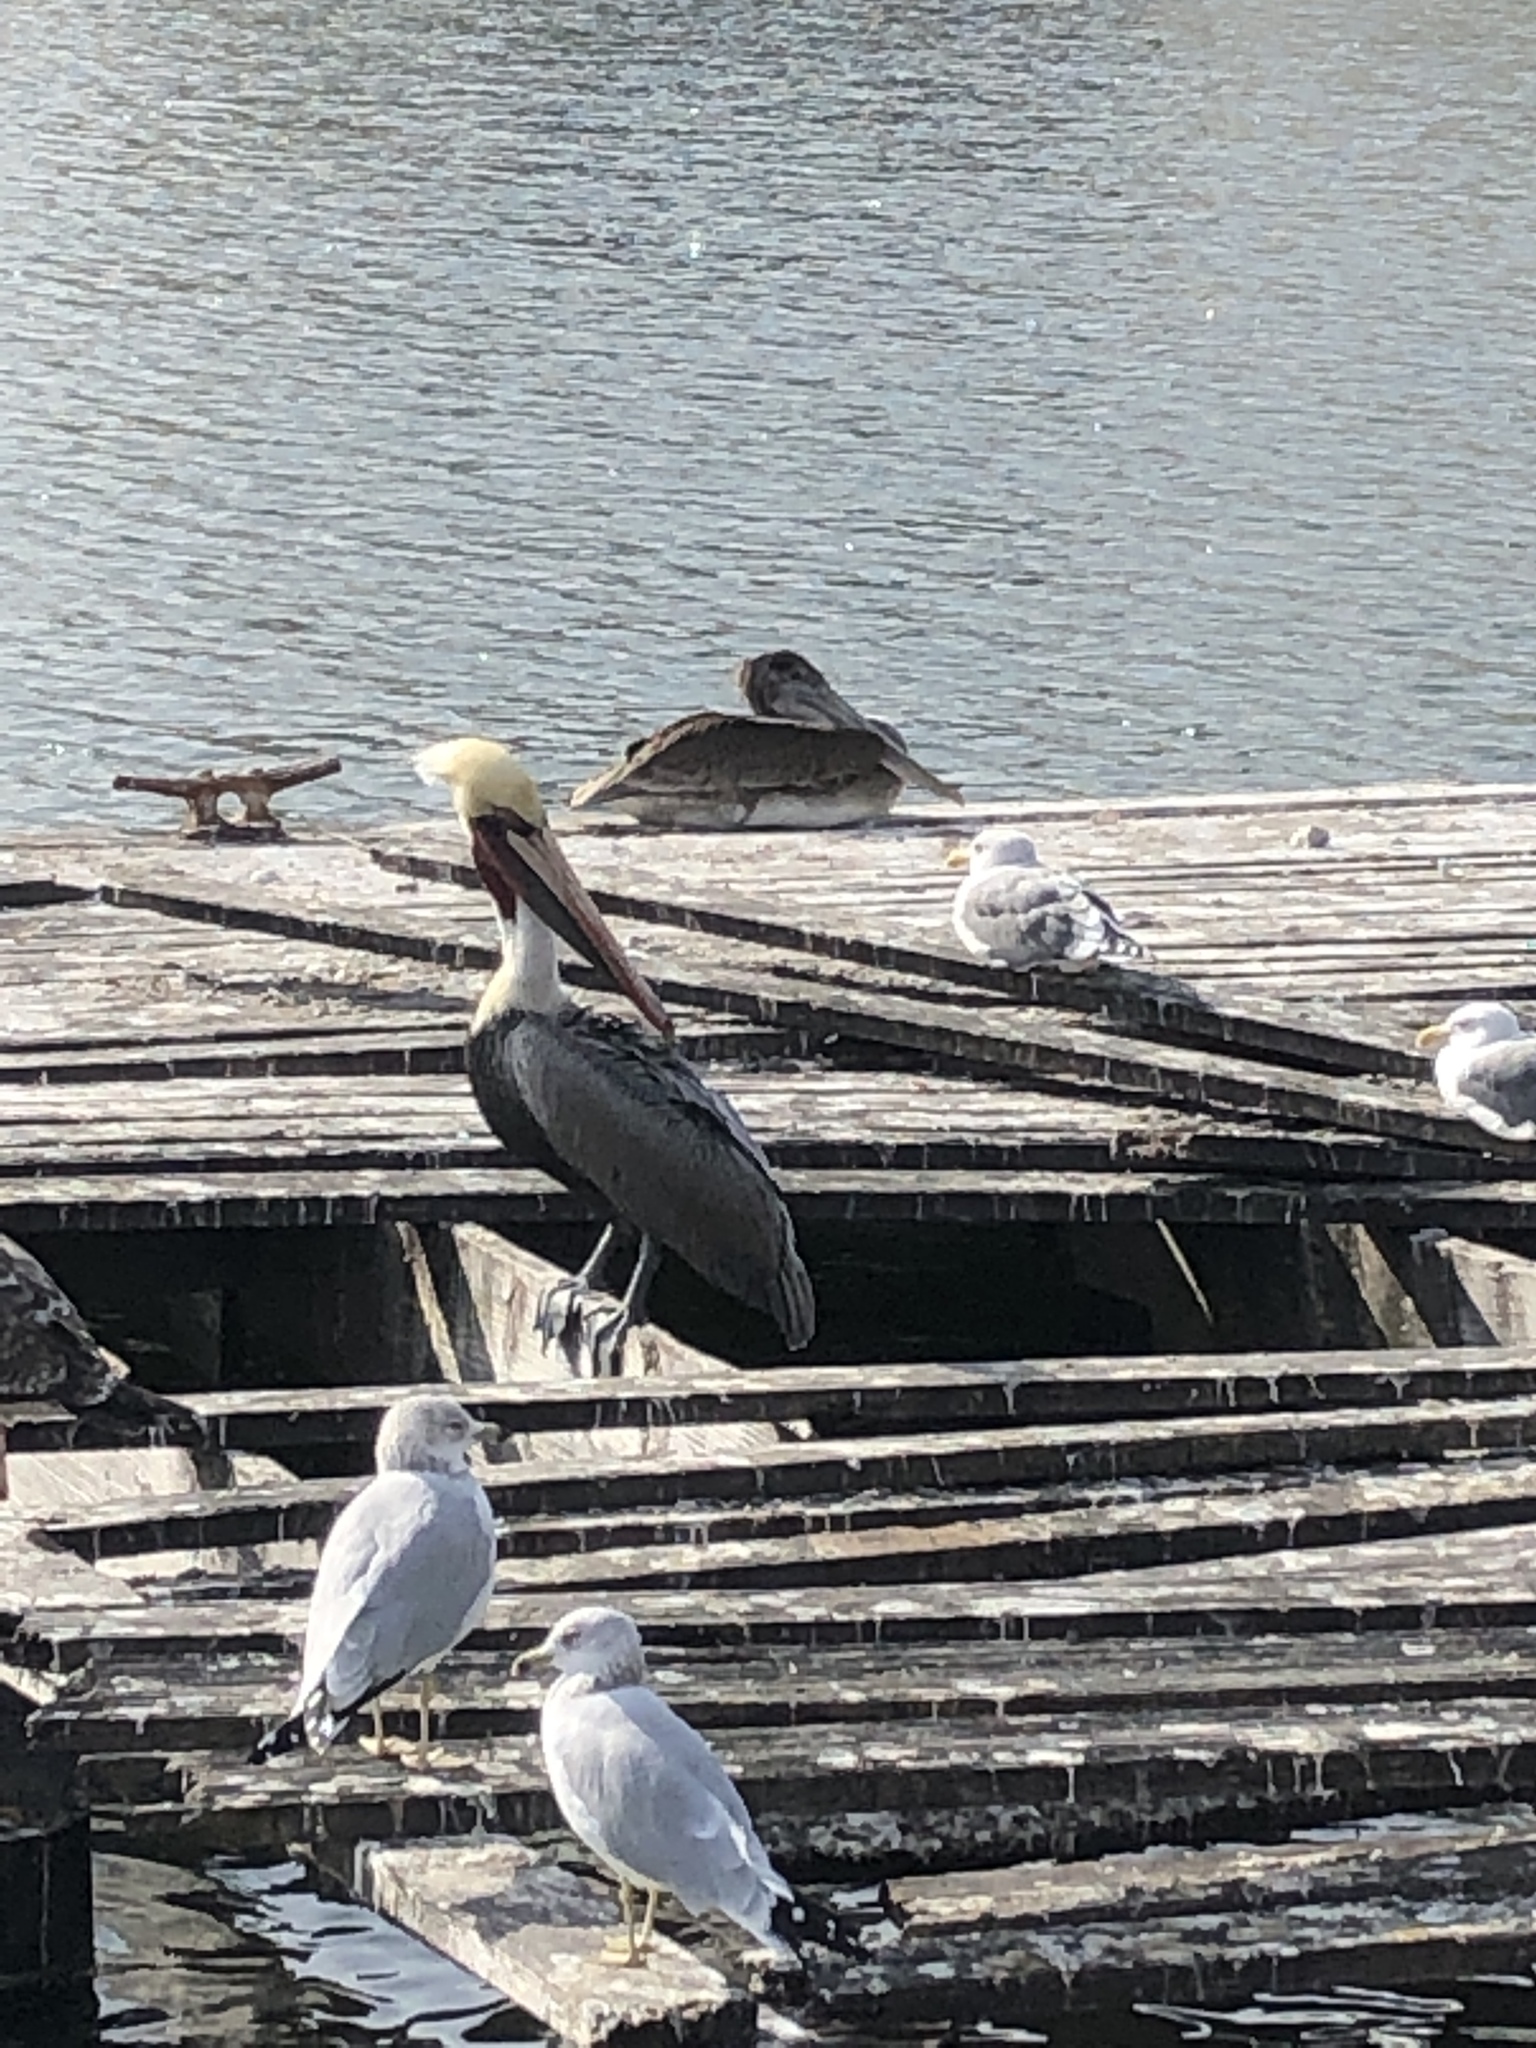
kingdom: Animalia
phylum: Chordata
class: Aves
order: Pelecaniformes
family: Pelecanidae
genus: Pelecanus
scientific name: Pelecanus occidentalis
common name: Brown pelican
